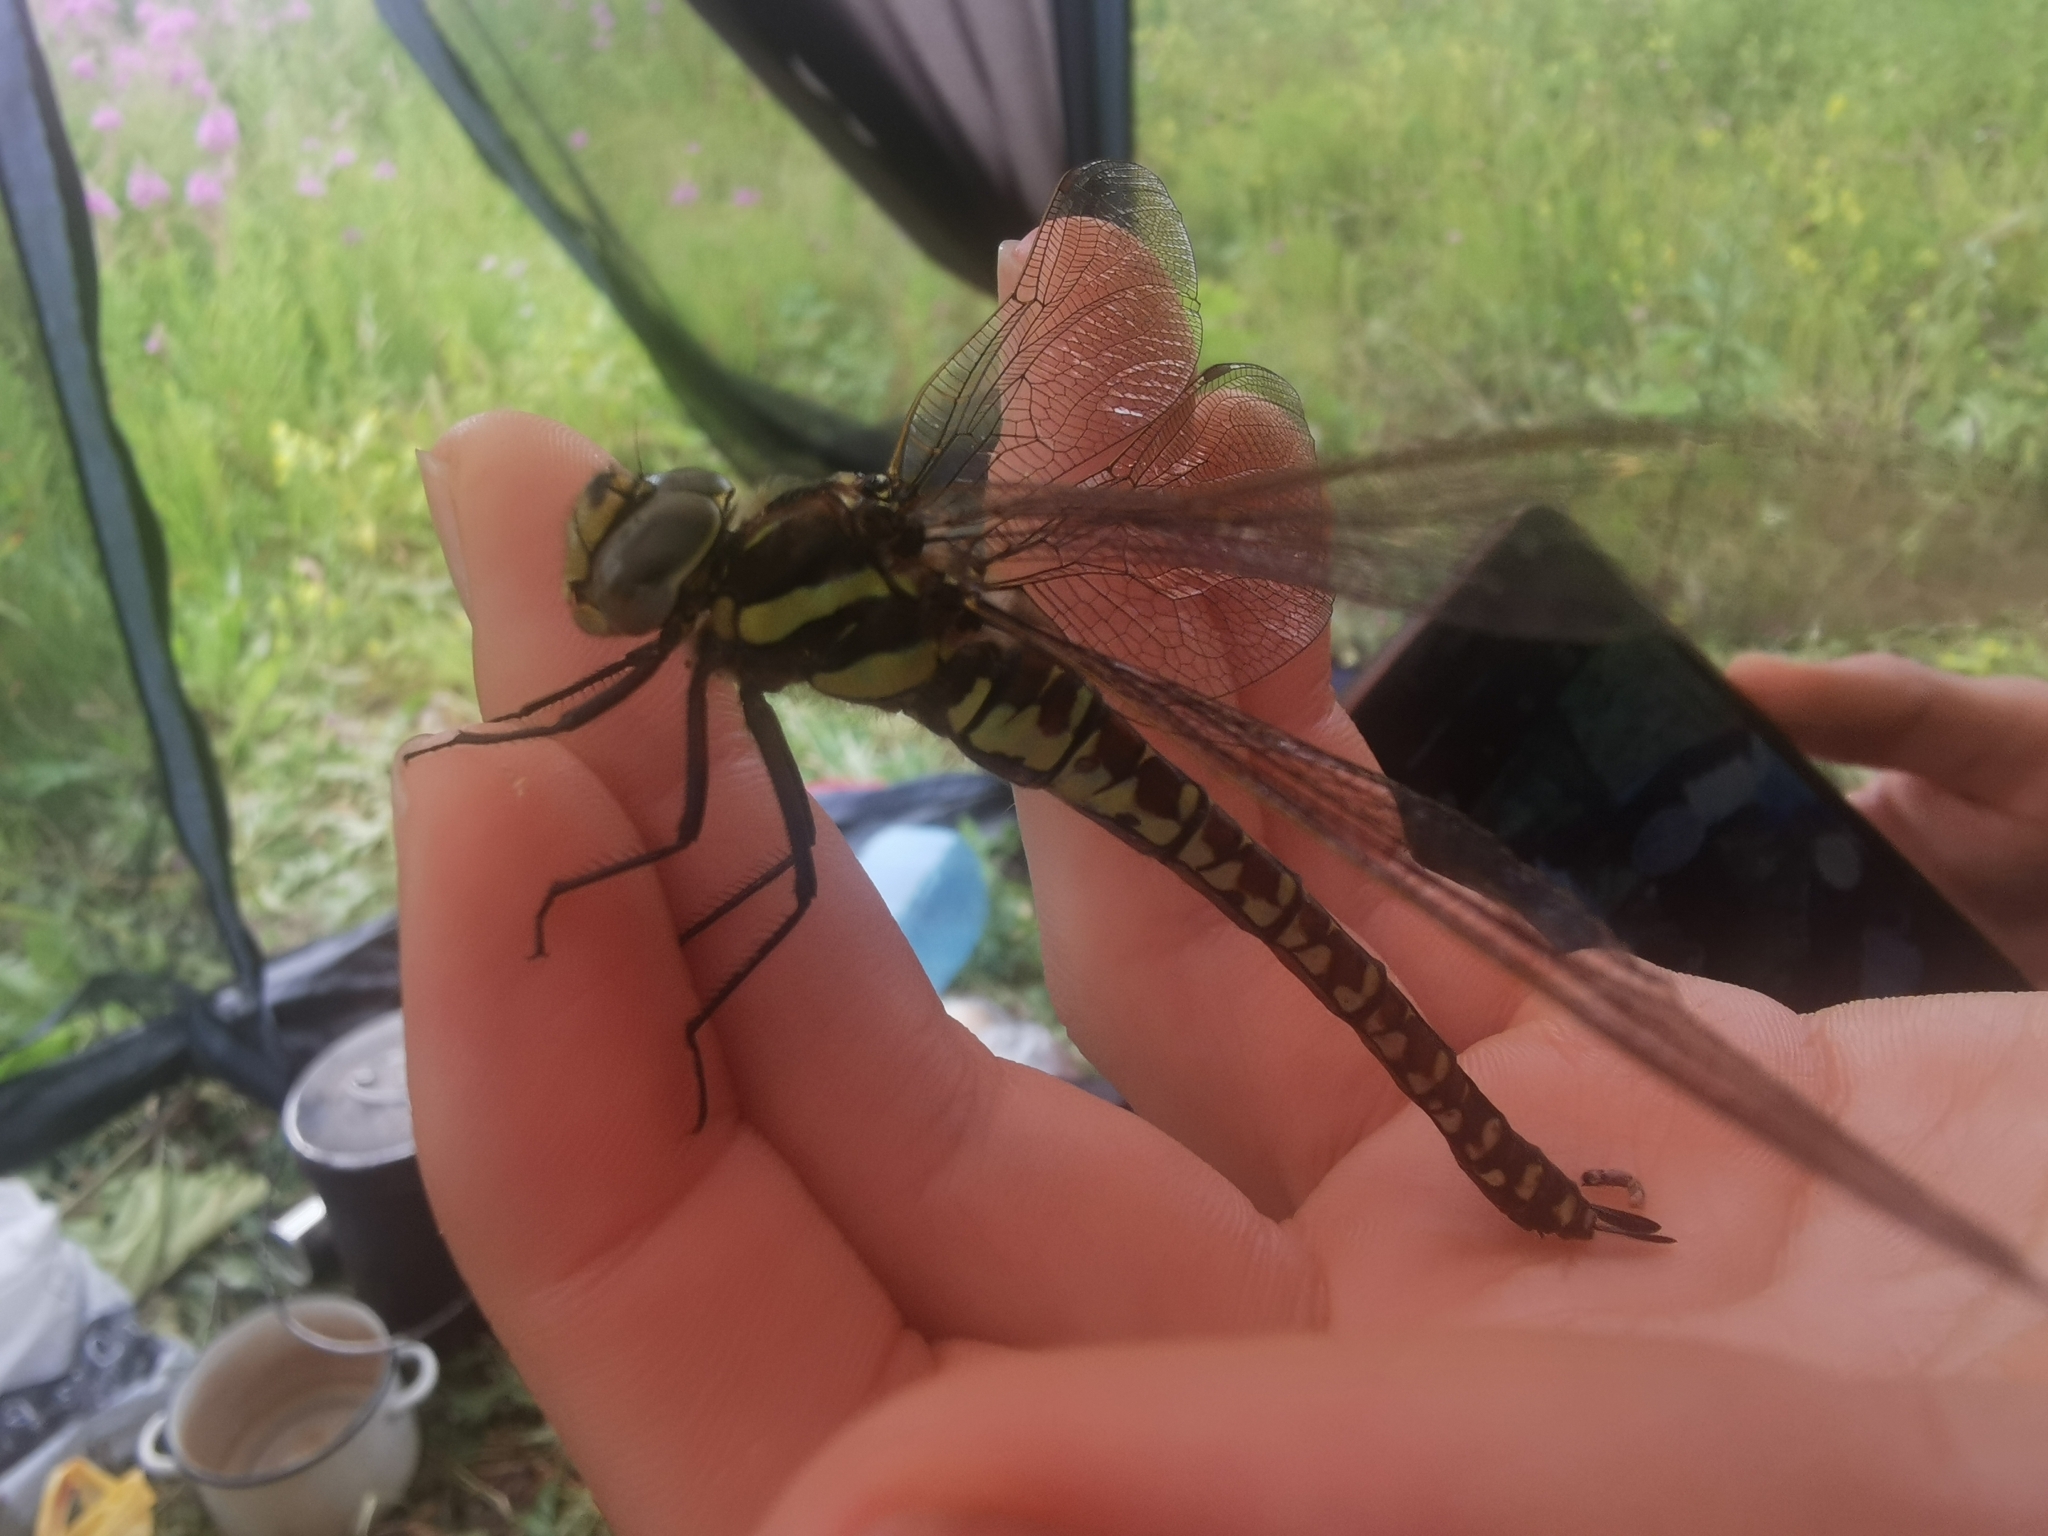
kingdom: Animalia
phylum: Arthropoda
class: Insecta
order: Odonata
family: Aeshnidae
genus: Aeshna
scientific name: Aeshna juncea
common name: Moorland hawker
